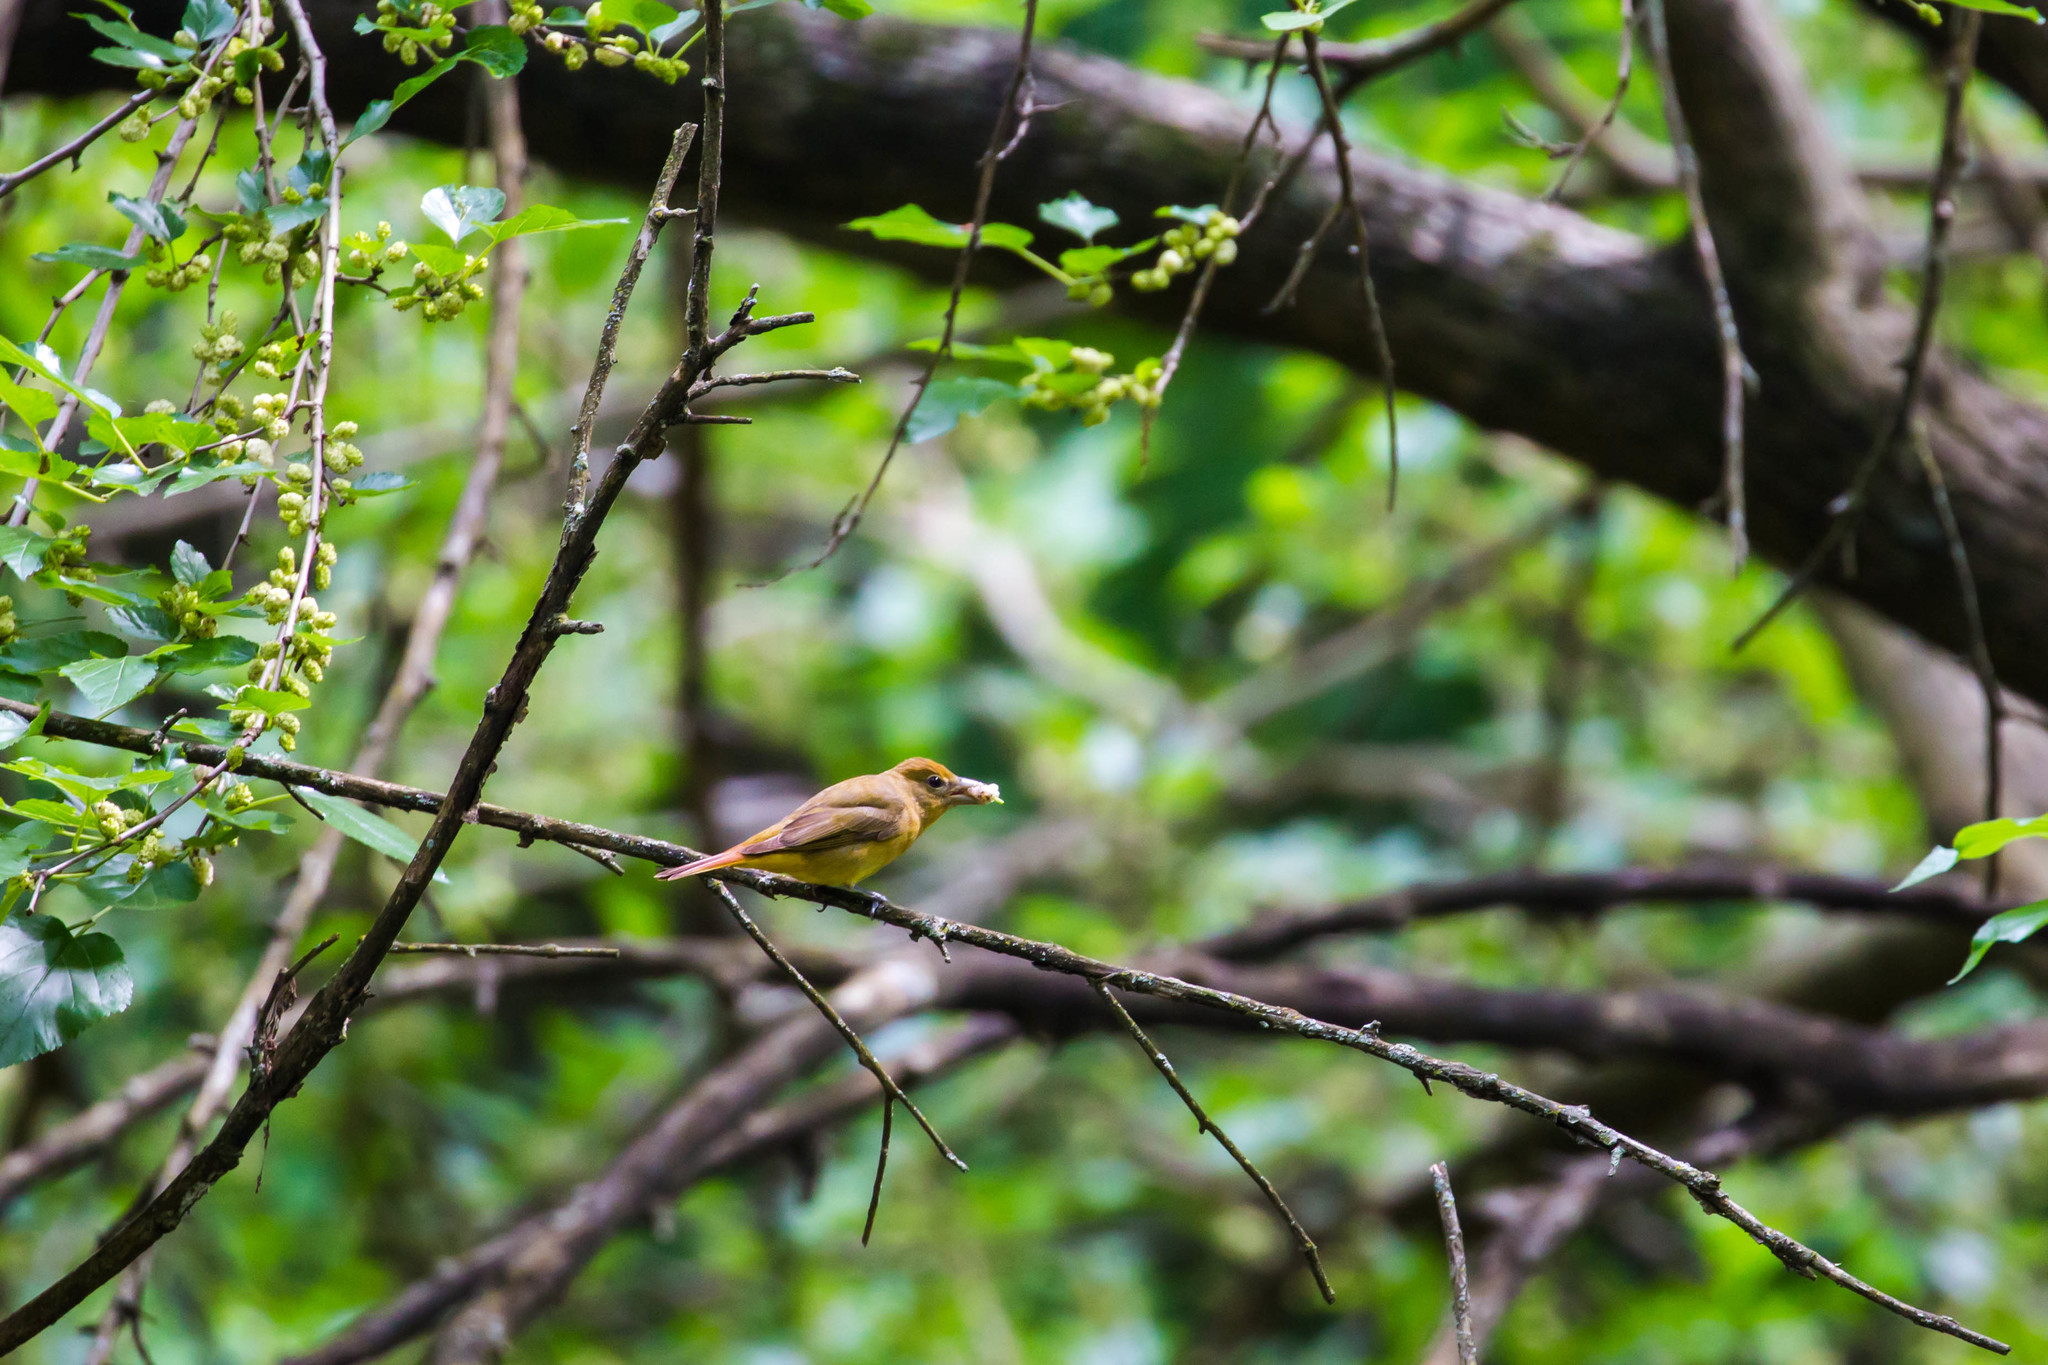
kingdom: Animalia
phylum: Chordata
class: Aves
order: Passeriformes
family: Cardinalidae
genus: Piranga
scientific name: Piranga rubra
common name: Summer tanager
